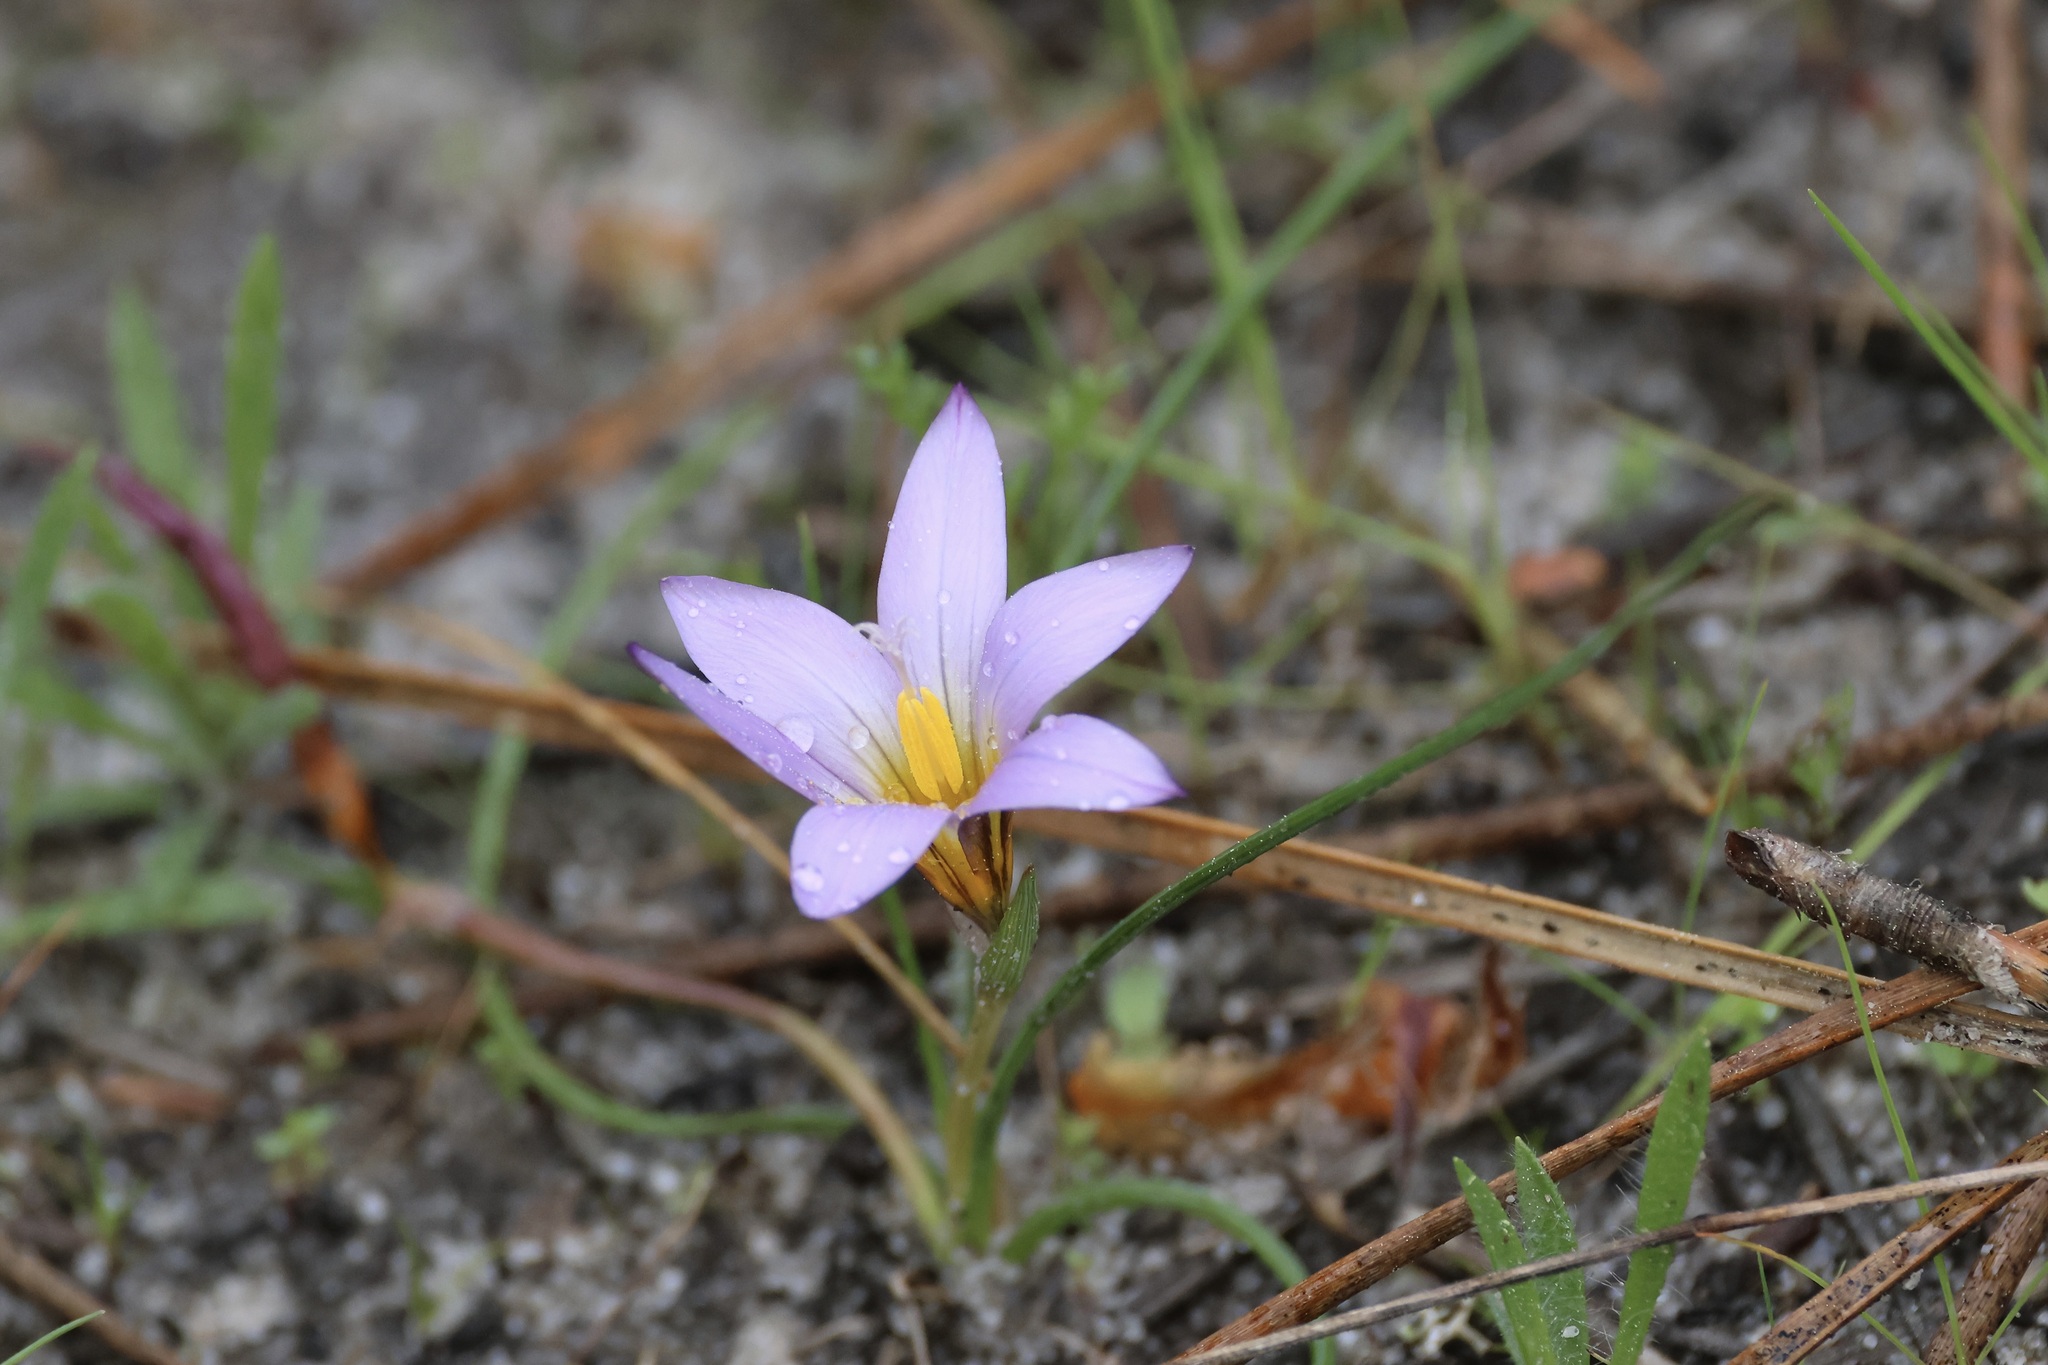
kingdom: Plantae
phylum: Tracheophyta
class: Liliopsida
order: Asparagales
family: Iridaceae
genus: Romulea
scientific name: Romulea bulbocodium
